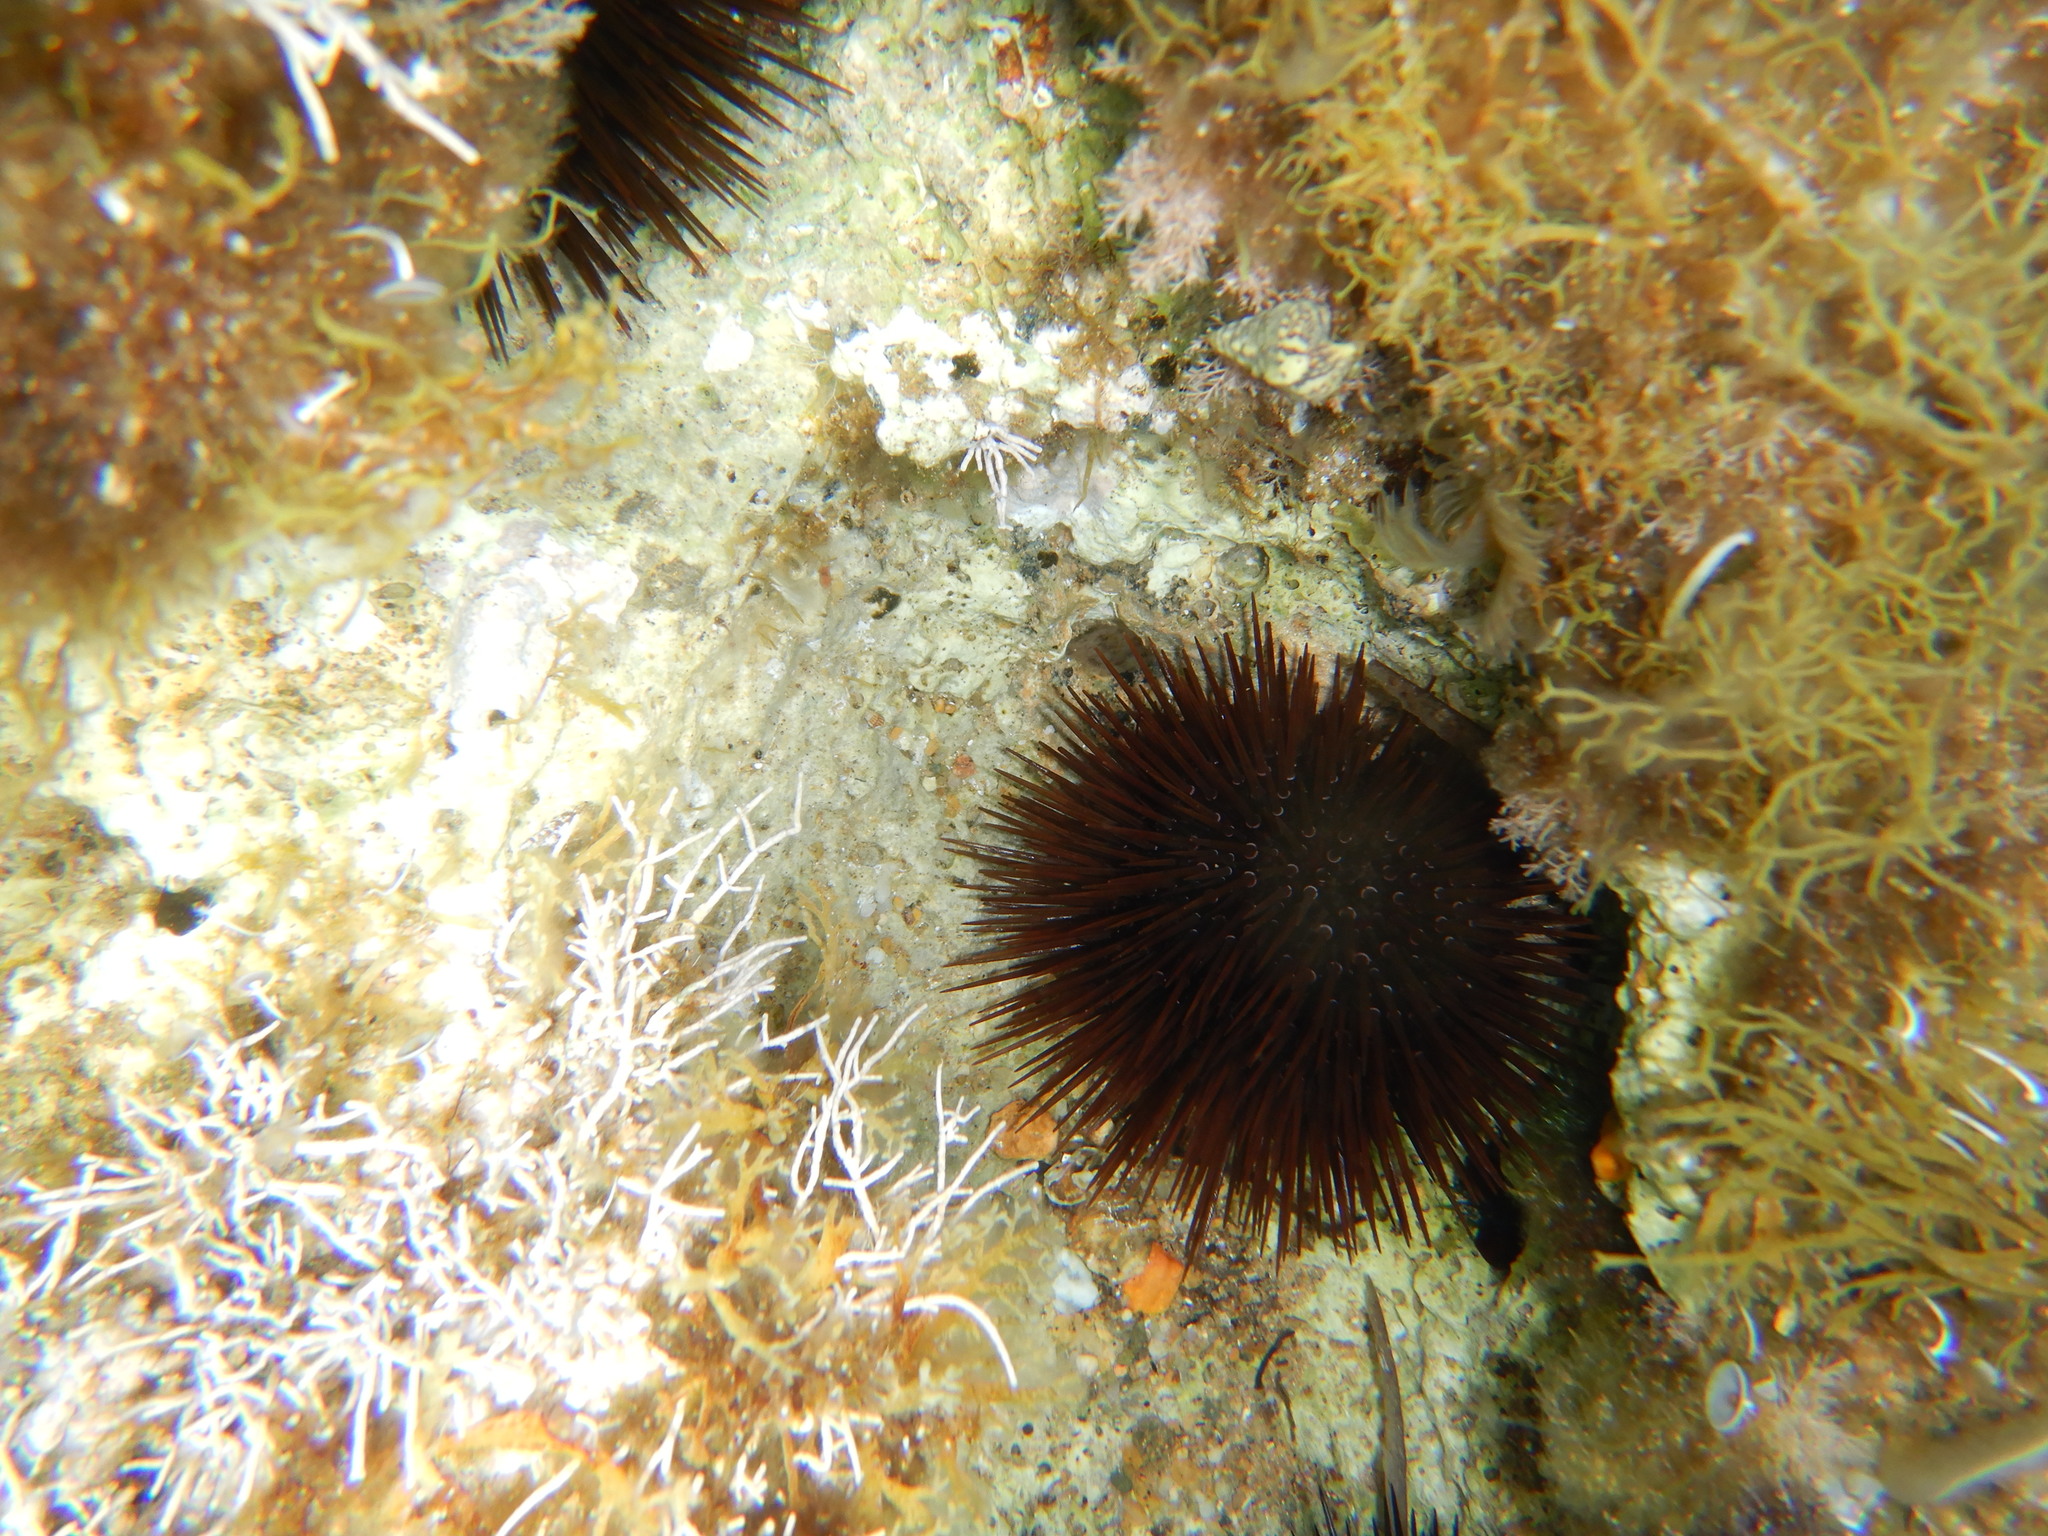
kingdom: Animalia
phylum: Echinodermata
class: Echinoidea
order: Camarodonta
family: Parechinidae
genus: Paracentrotus
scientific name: Paracentrotus lividus
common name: Purple sea urchin
